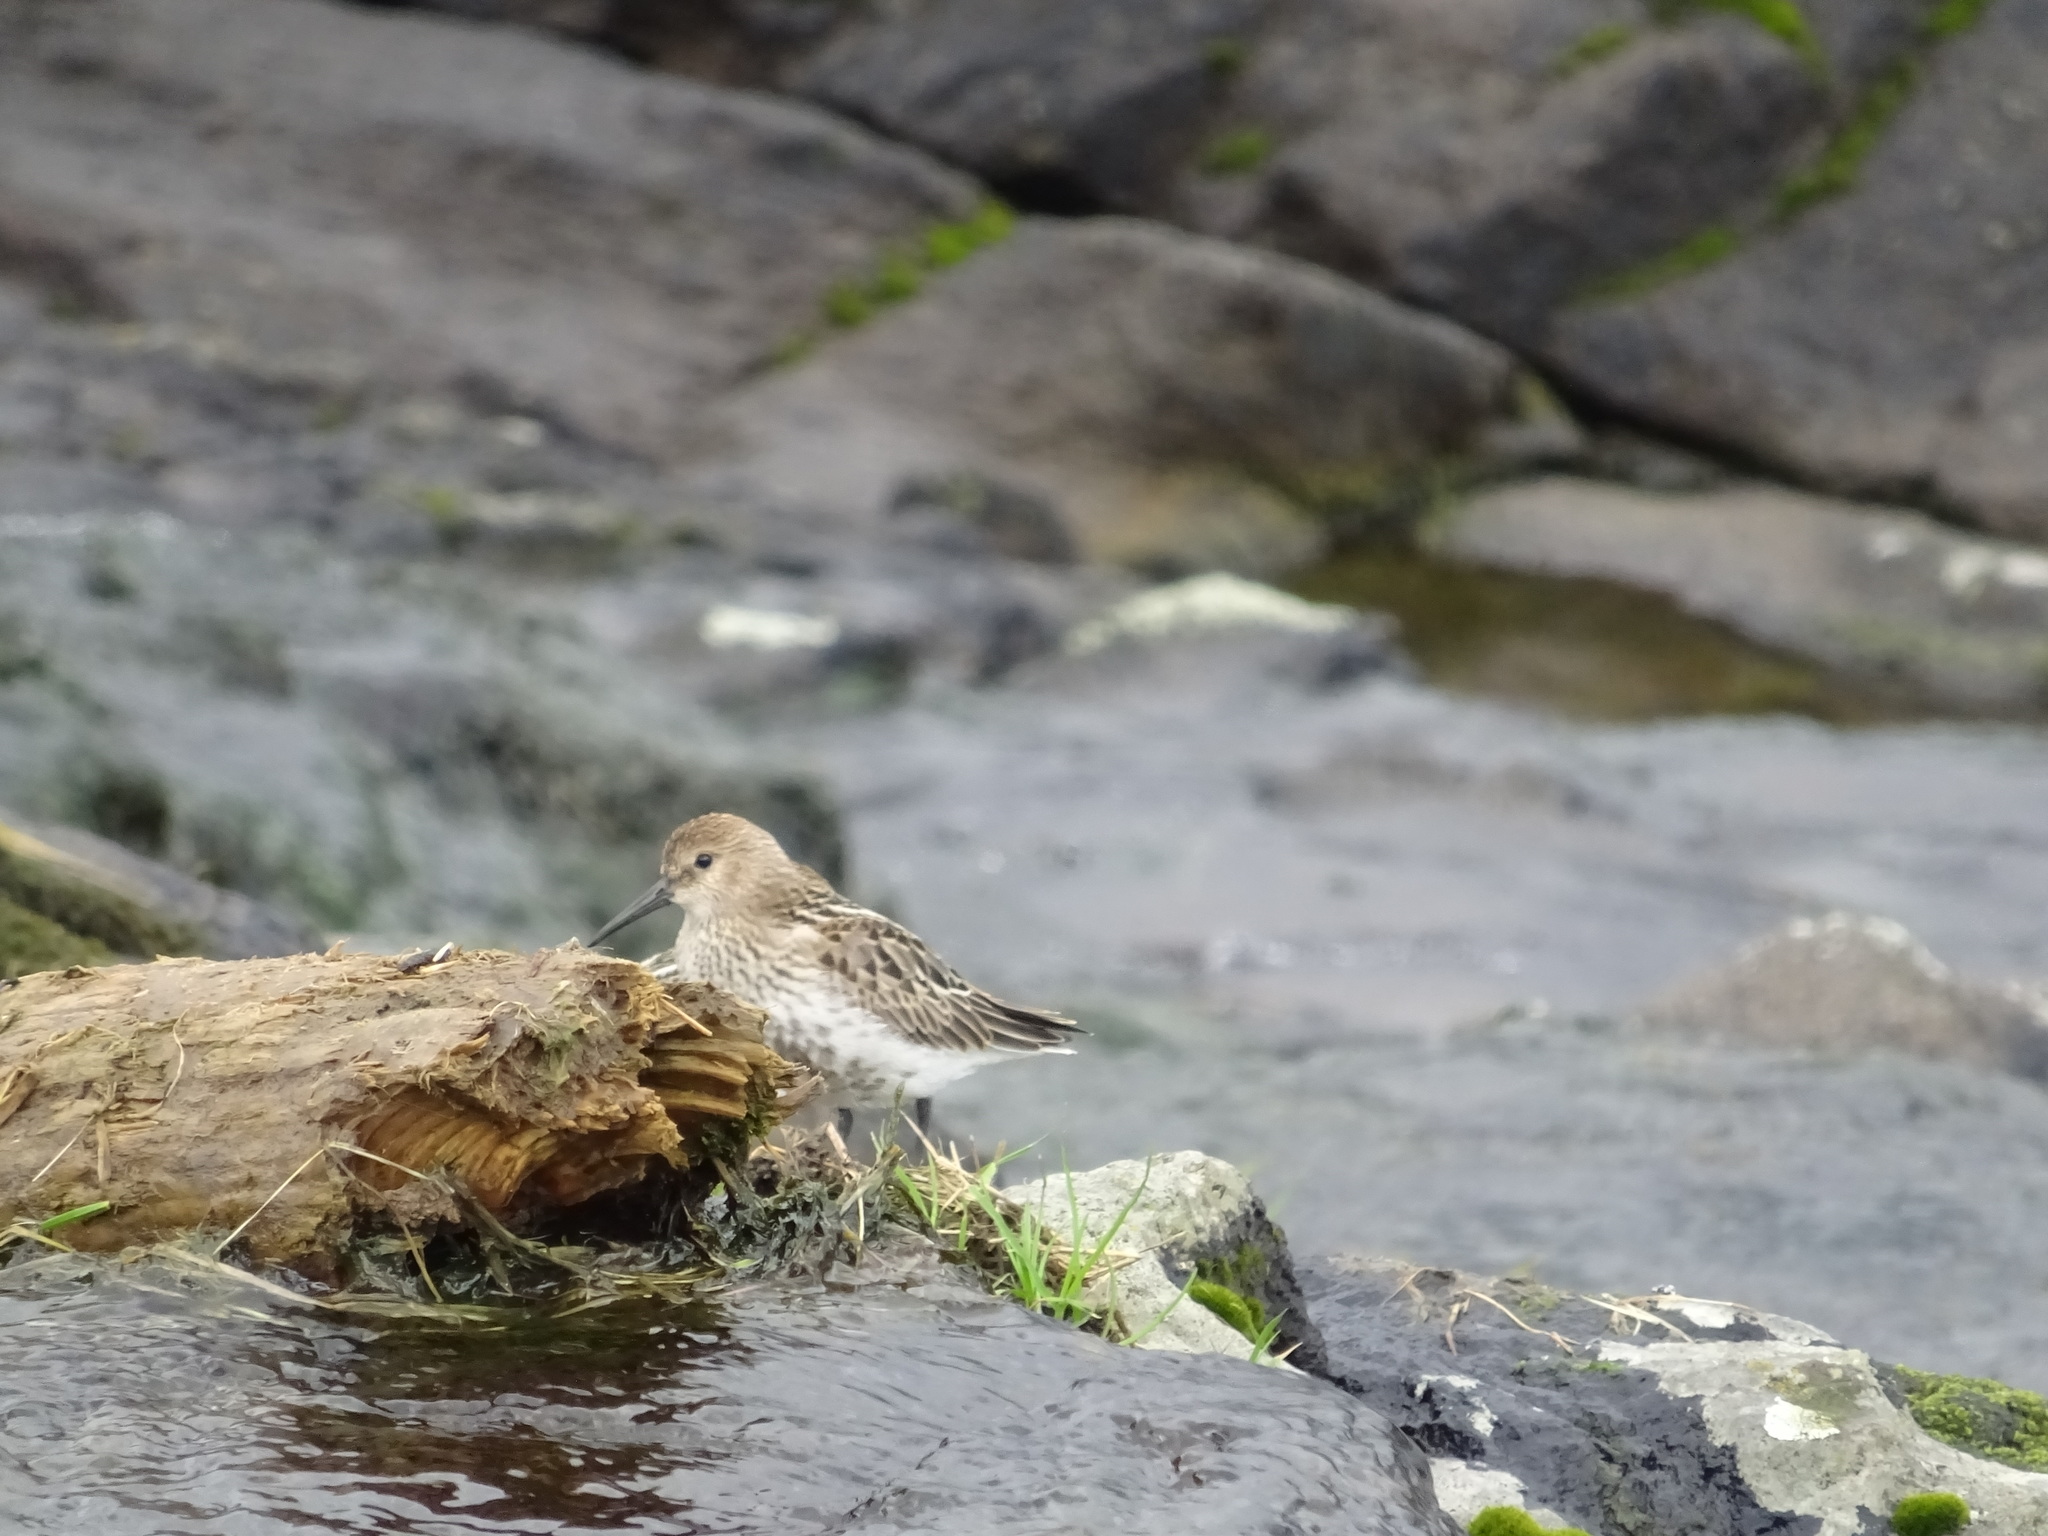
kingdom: Animalia
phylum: Chordata
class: Aves
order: Charadriiformes
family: Scolopacidae
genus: Calidris
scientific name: Calidris alpina
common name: Dunlin
